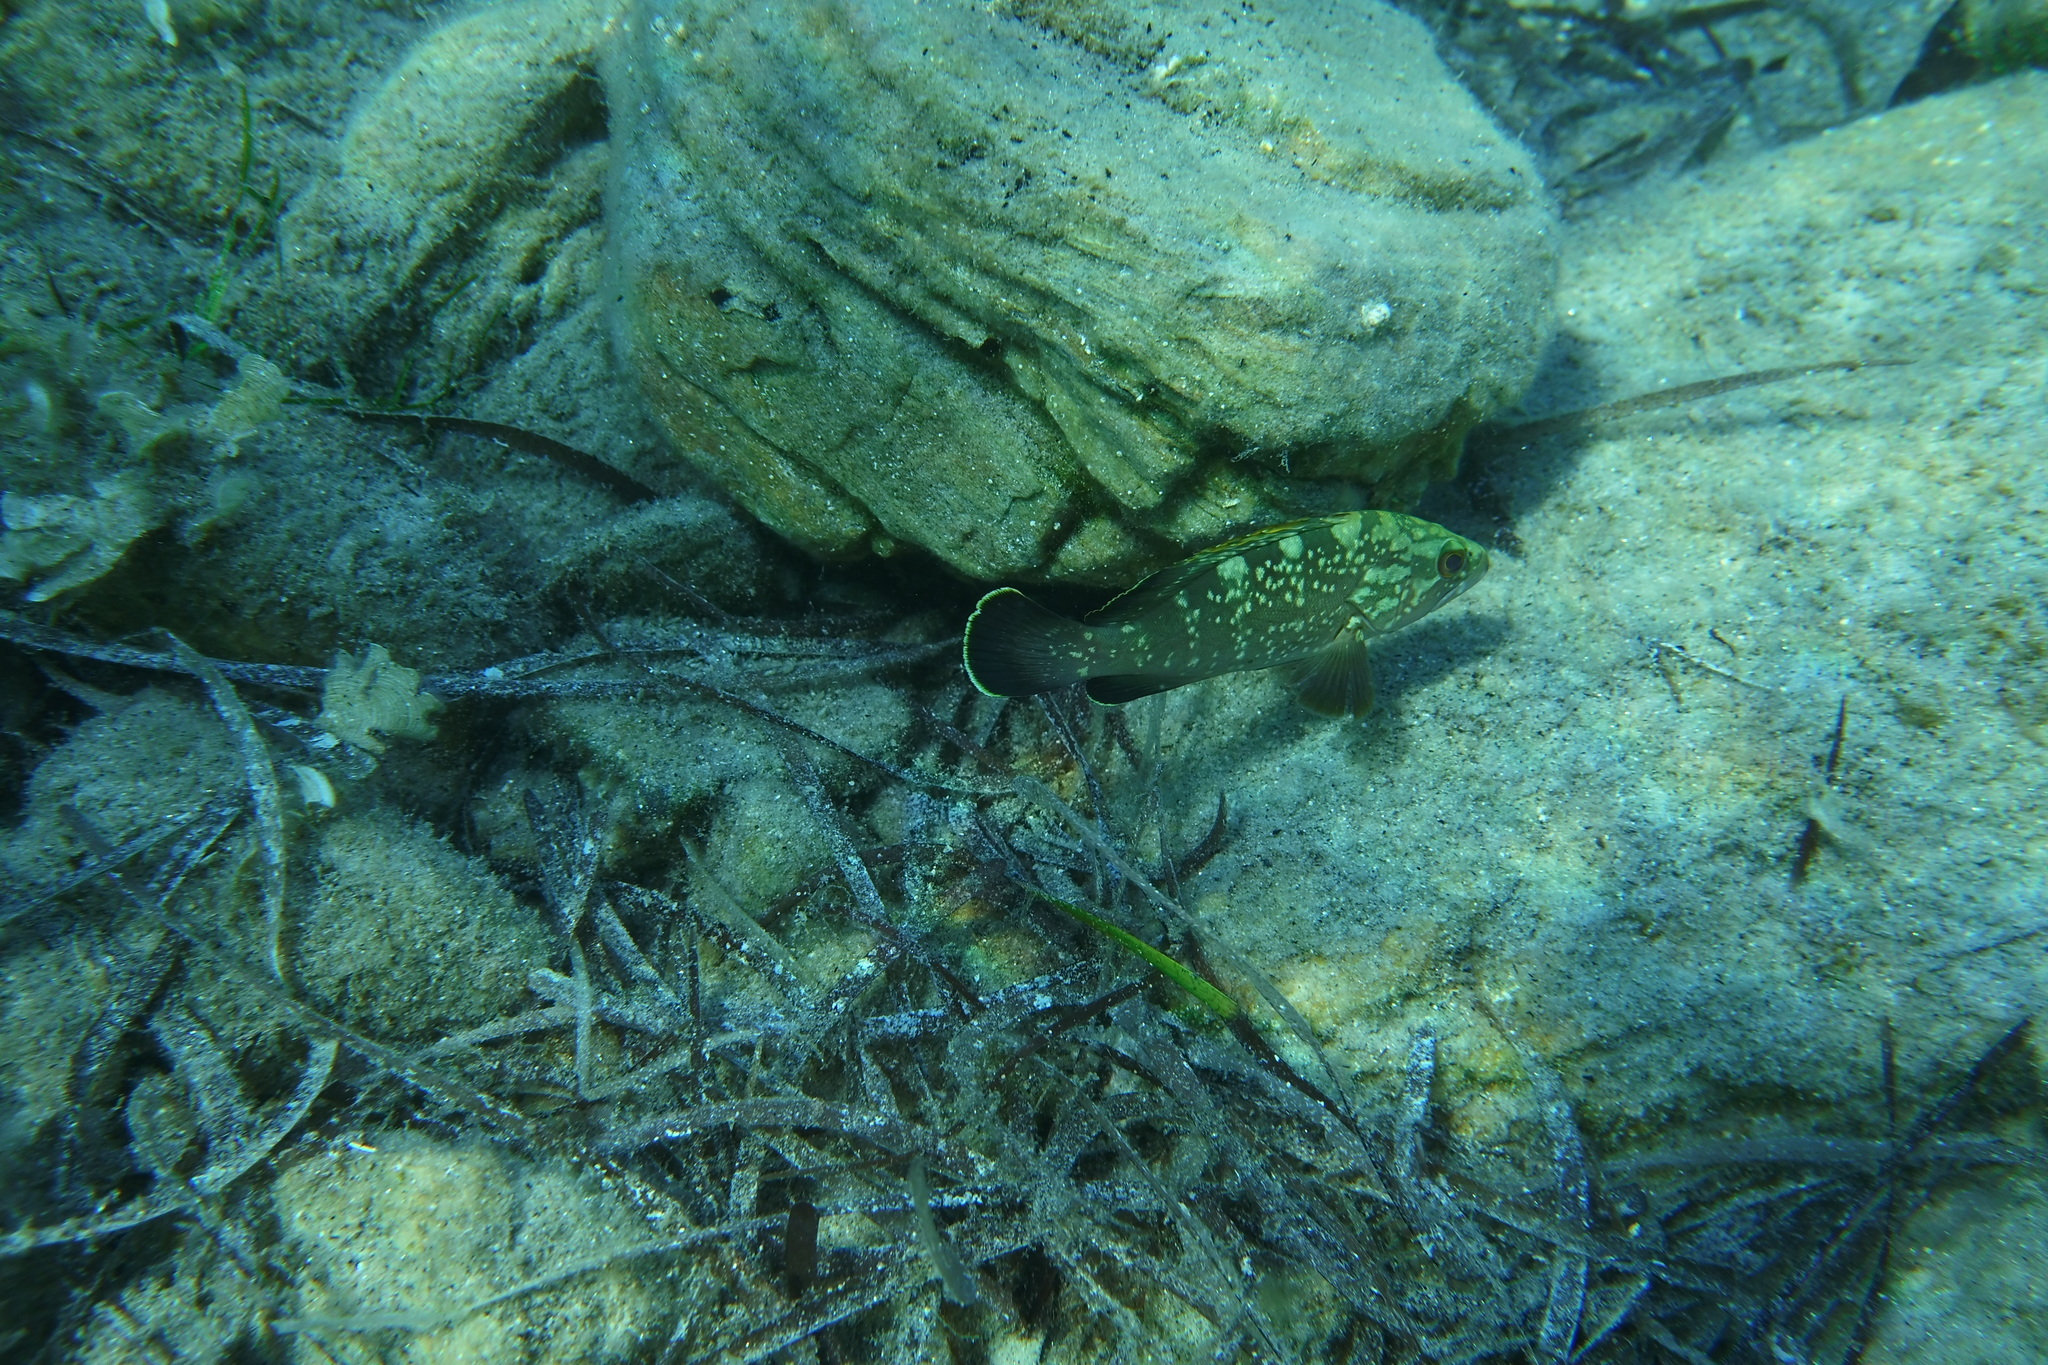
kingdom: Animalia
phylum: Chordata
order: Perciformes
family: Serranidae
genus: Epinephelus
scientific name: Epinephelus marginatus
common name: Dusky grouper
